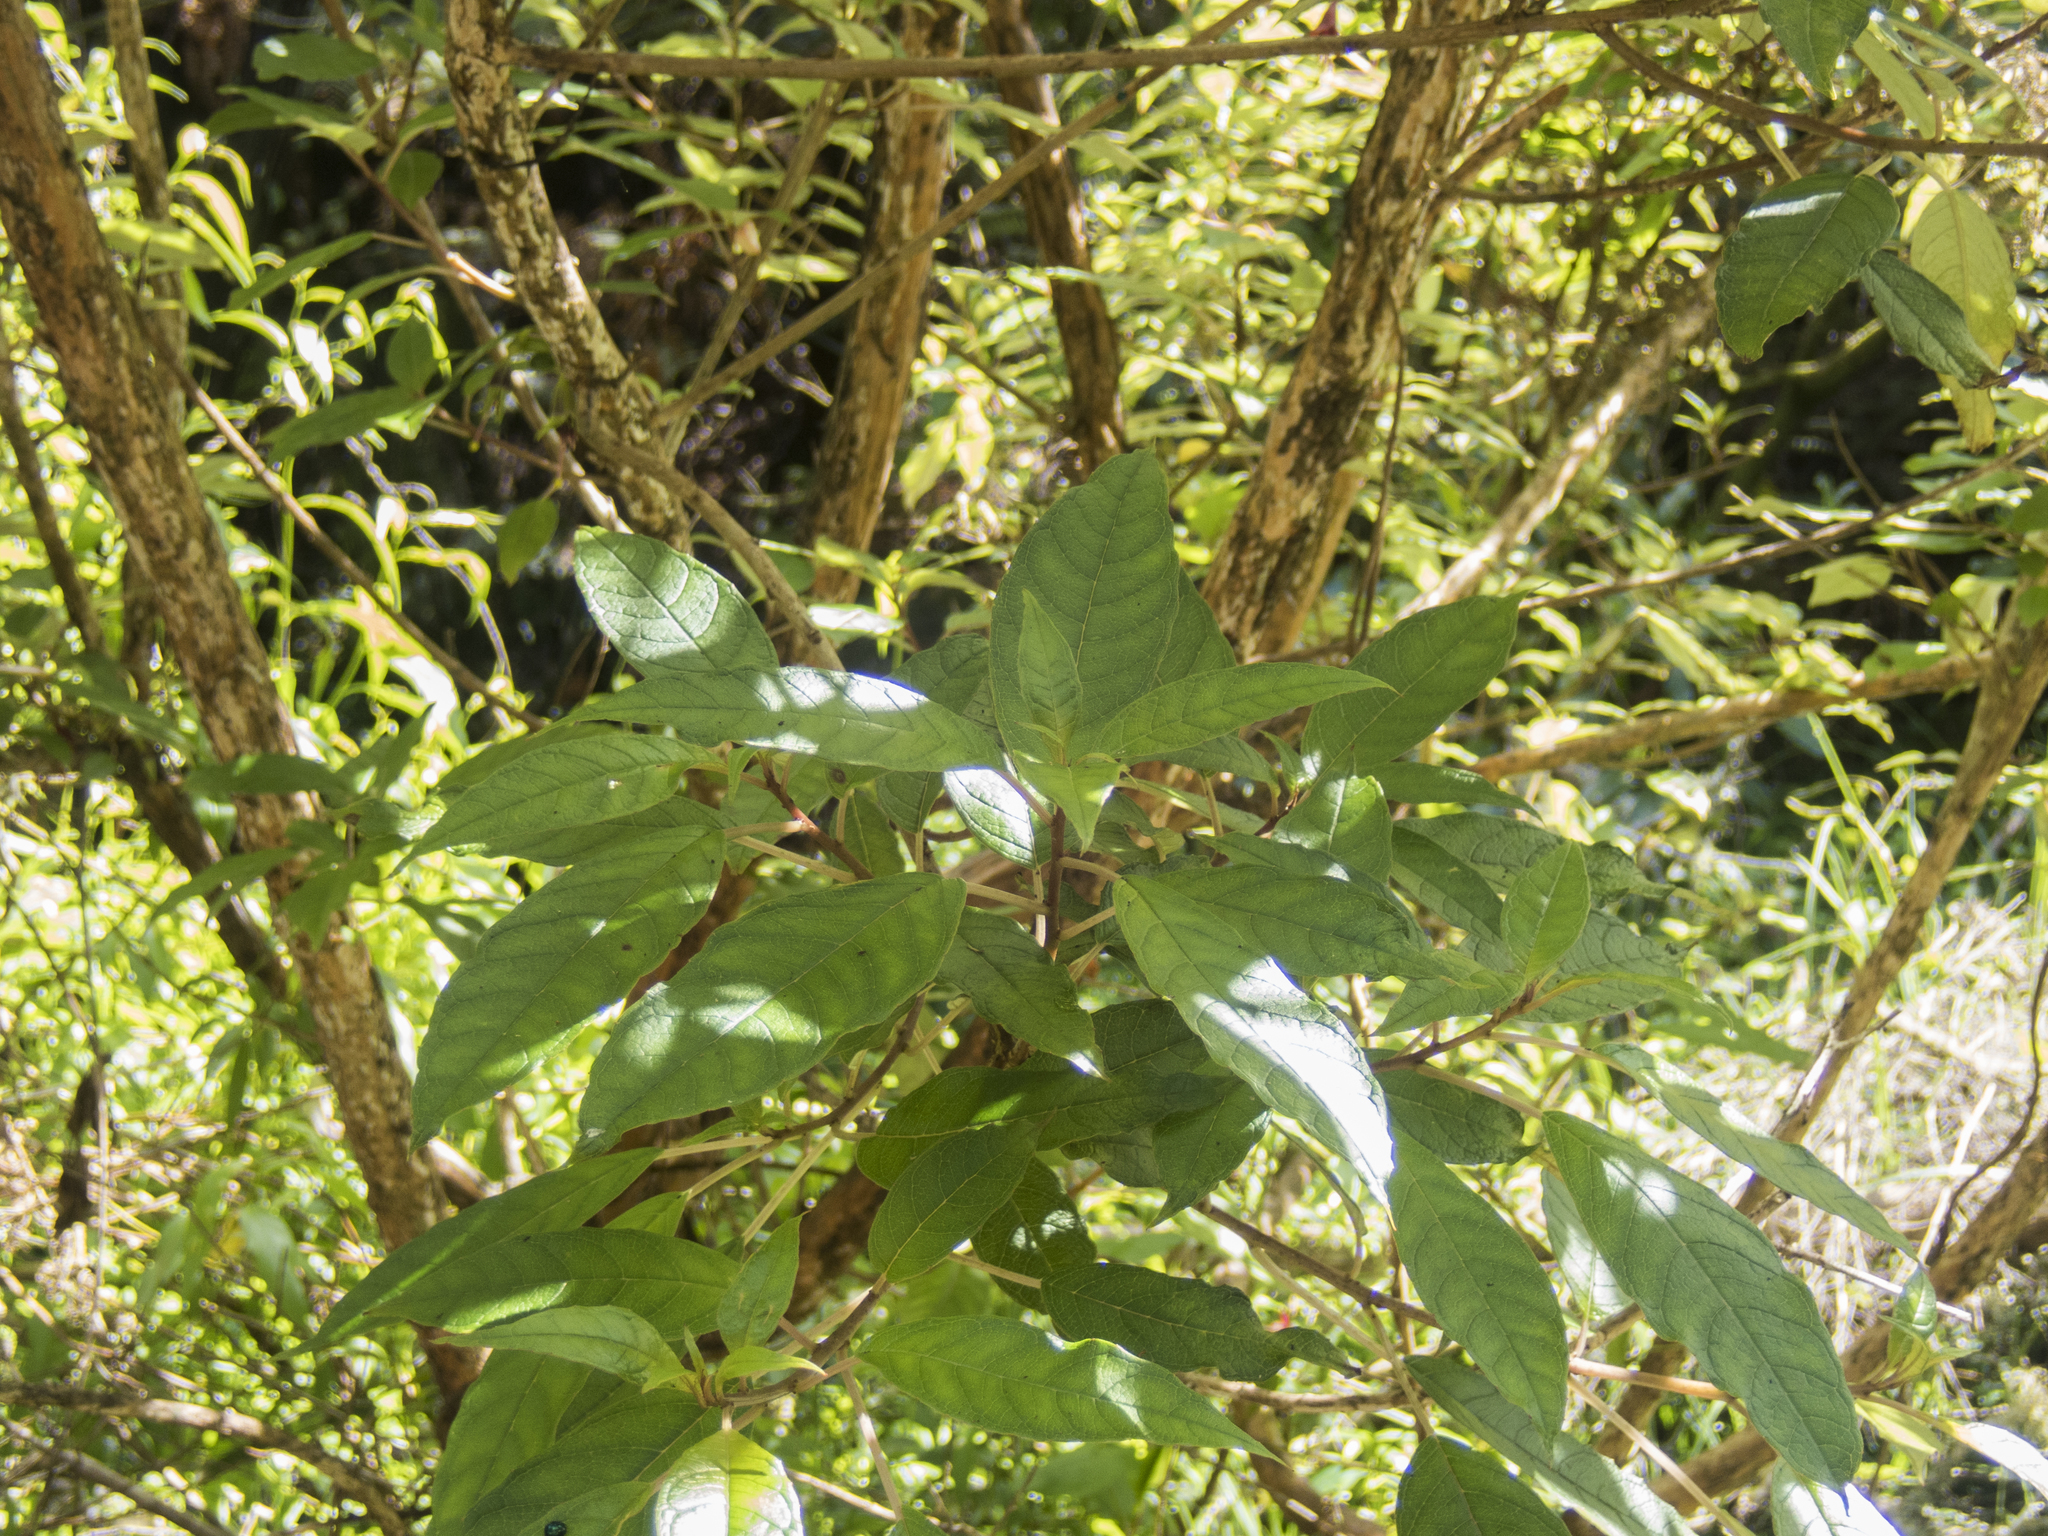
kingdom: Plantae
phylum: Tracheophyta
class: Magnoliopsida
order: Myrtales
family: Onagraceae
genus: Fuchsia
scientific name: Fuchsia excorticata
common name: Tree fuchsia
